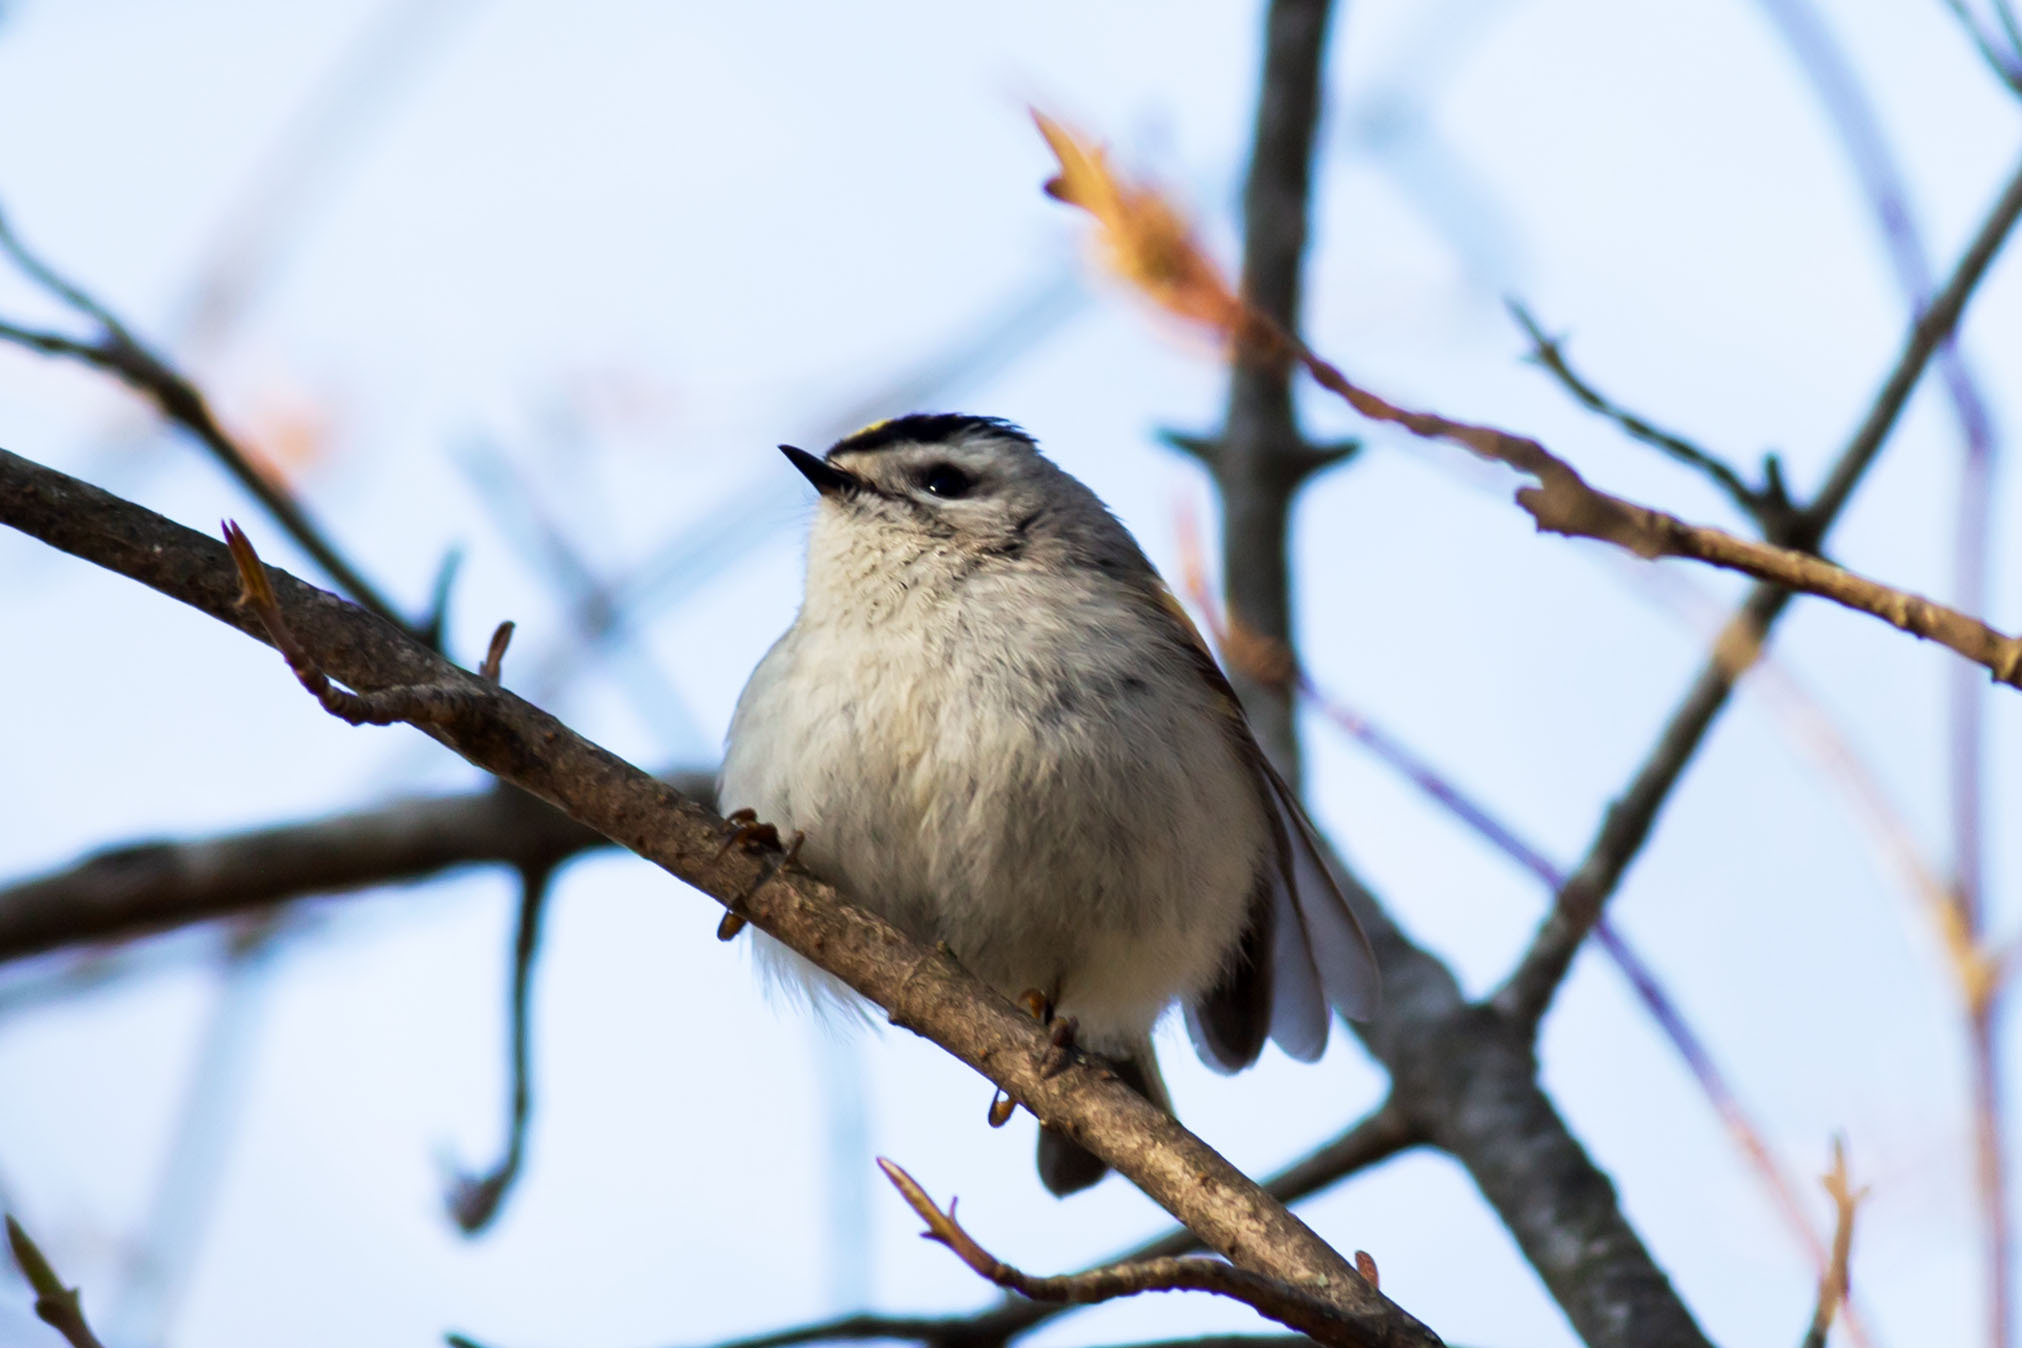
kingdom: Animalia
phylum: Chordata
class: Aves
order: Passeriformes
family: Regulidae
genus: Regulus
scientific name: Regulus satrapa
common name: Golden-crowned kinglet
